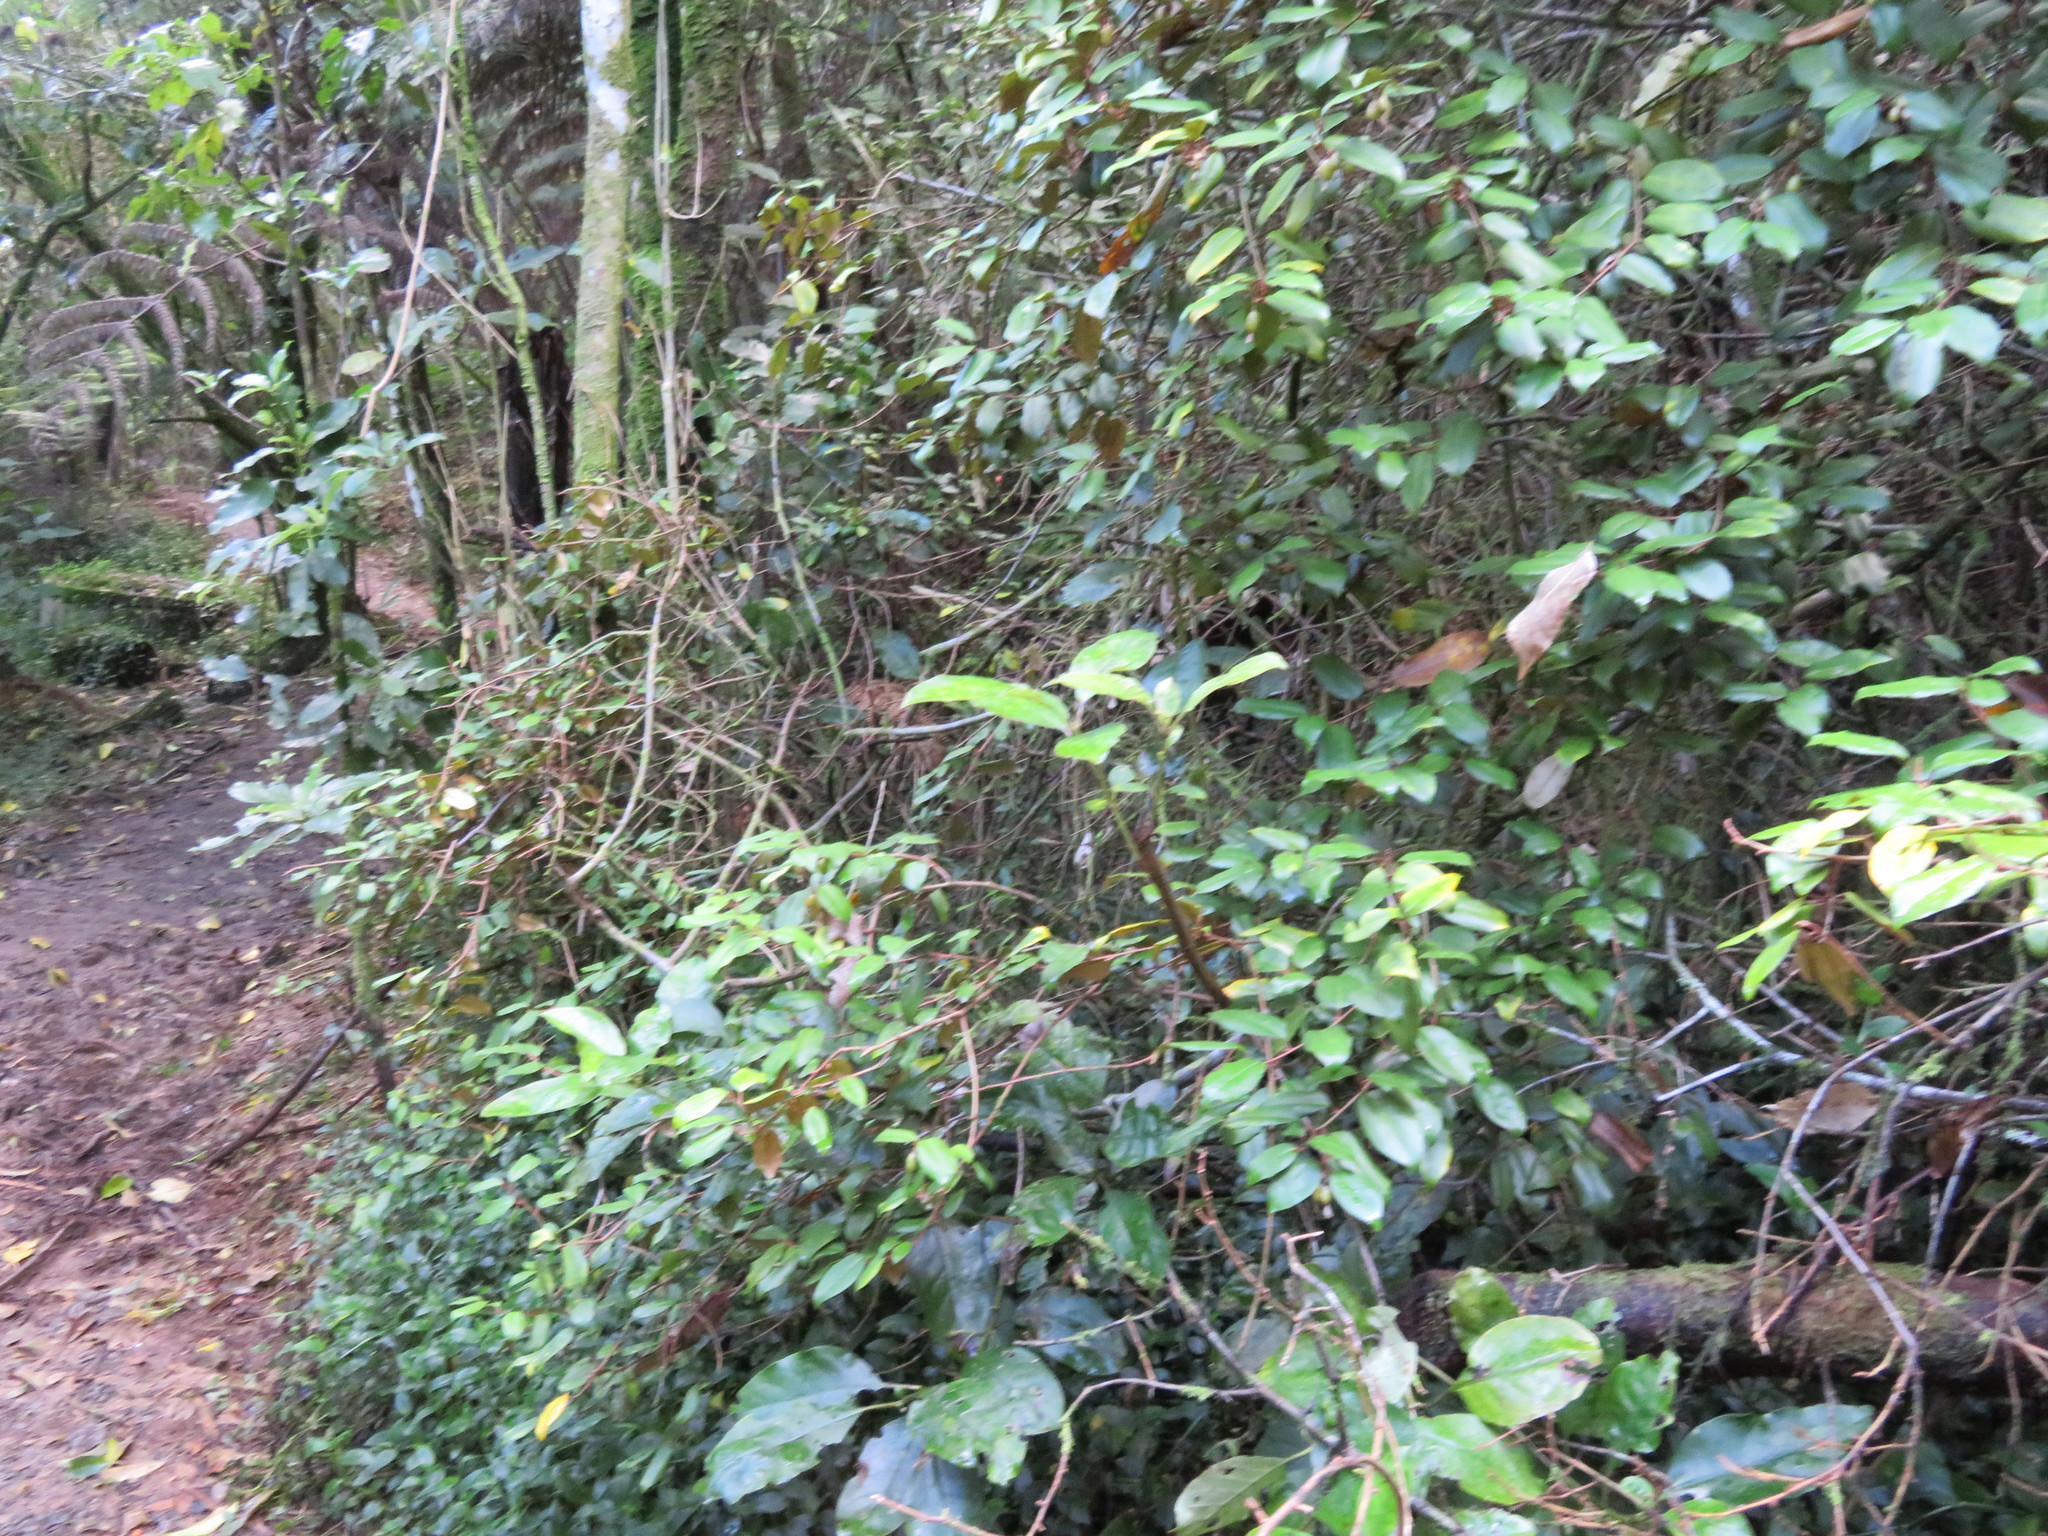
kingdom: Plantae
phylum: Tracheophyta
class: Magnoliopsida
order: Rosales
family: Elaeagnaceae
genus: Elaeagnus
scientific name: Elaeagnus reflexa
